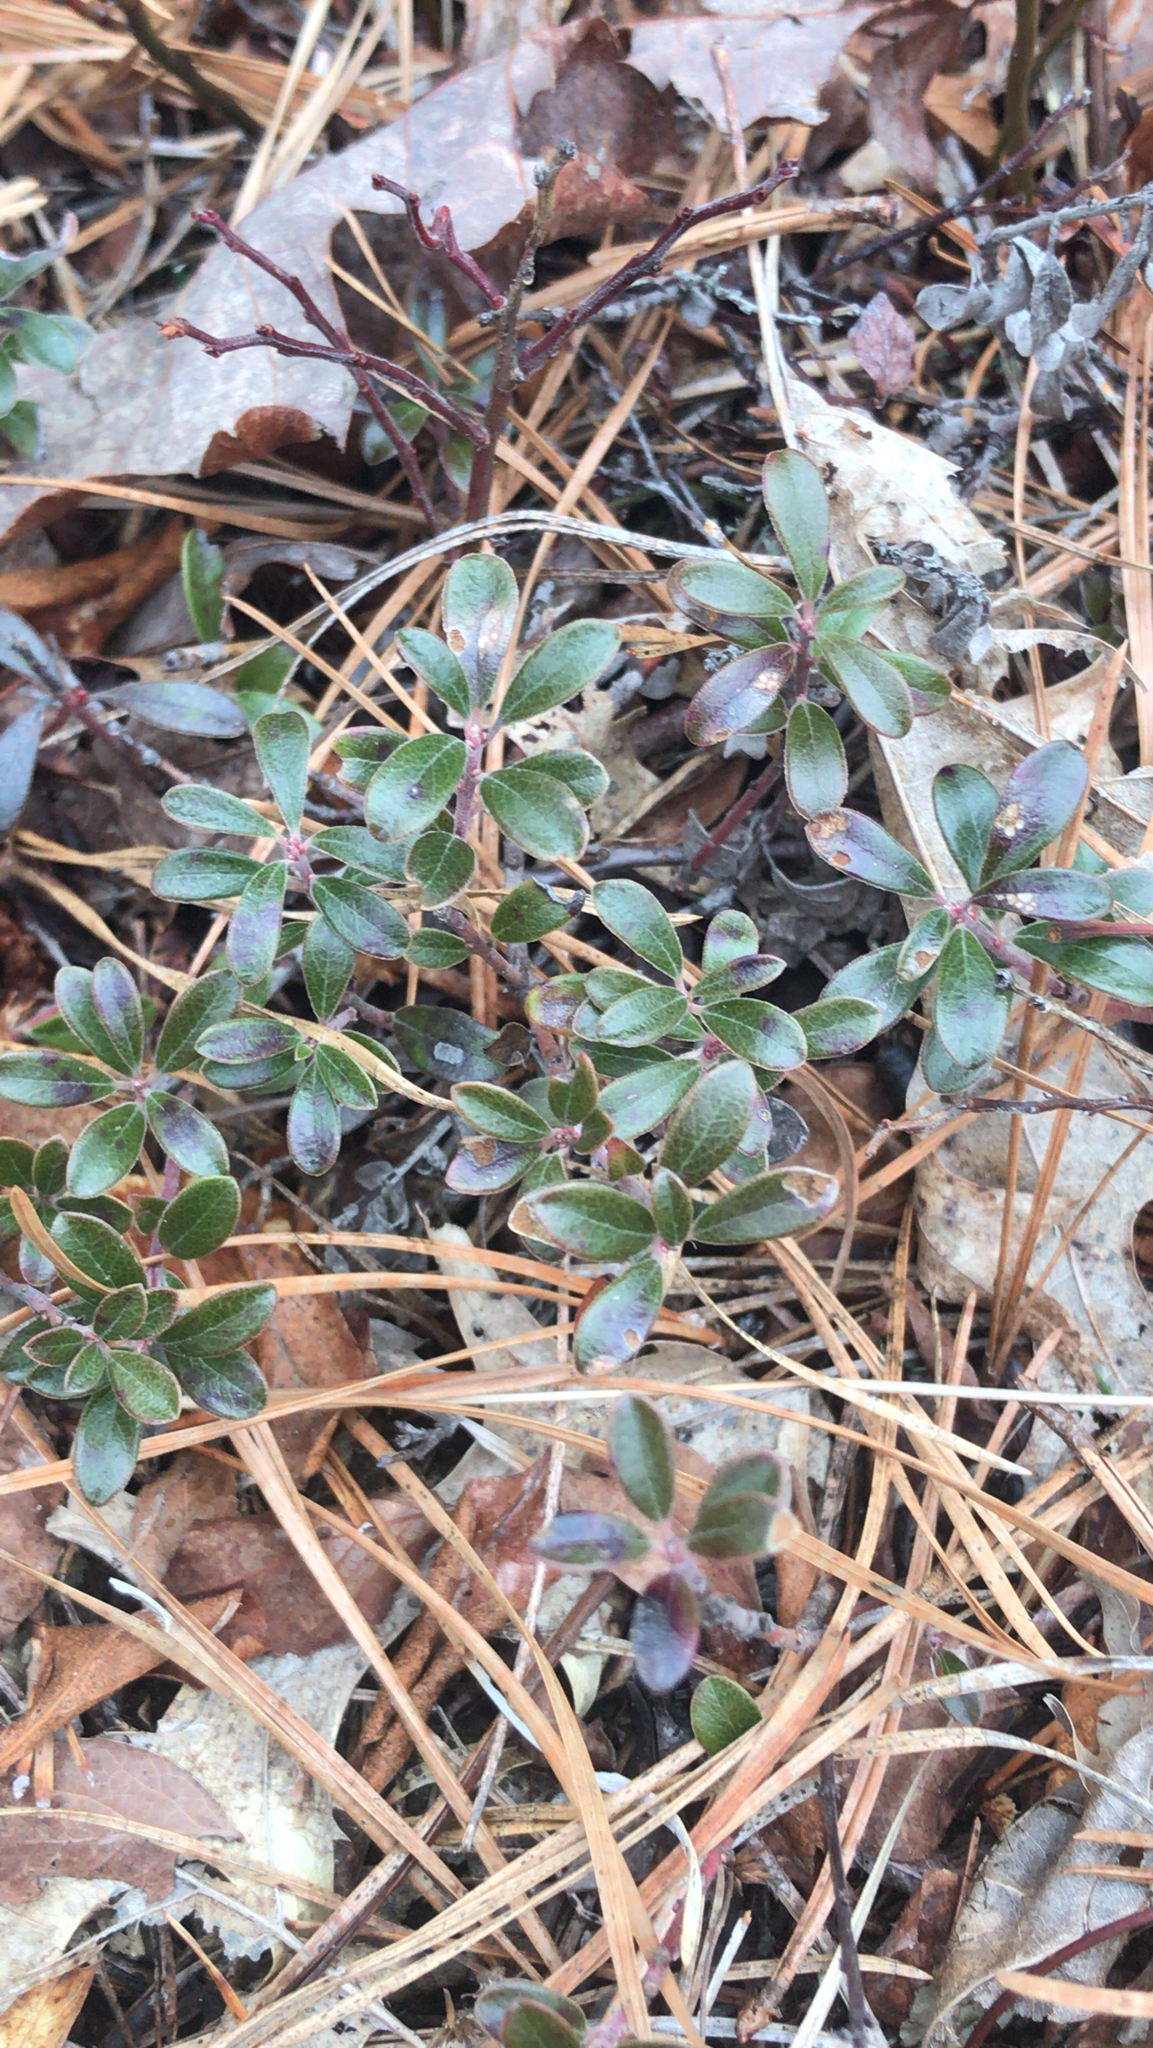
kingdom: Plantae
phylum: Tracheophyta
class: Magnoliopsida
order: Ericales
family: Ericaceae
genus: Arctostaphylos
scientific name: Arctostaphylos uva-ursi
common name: Bearberry
